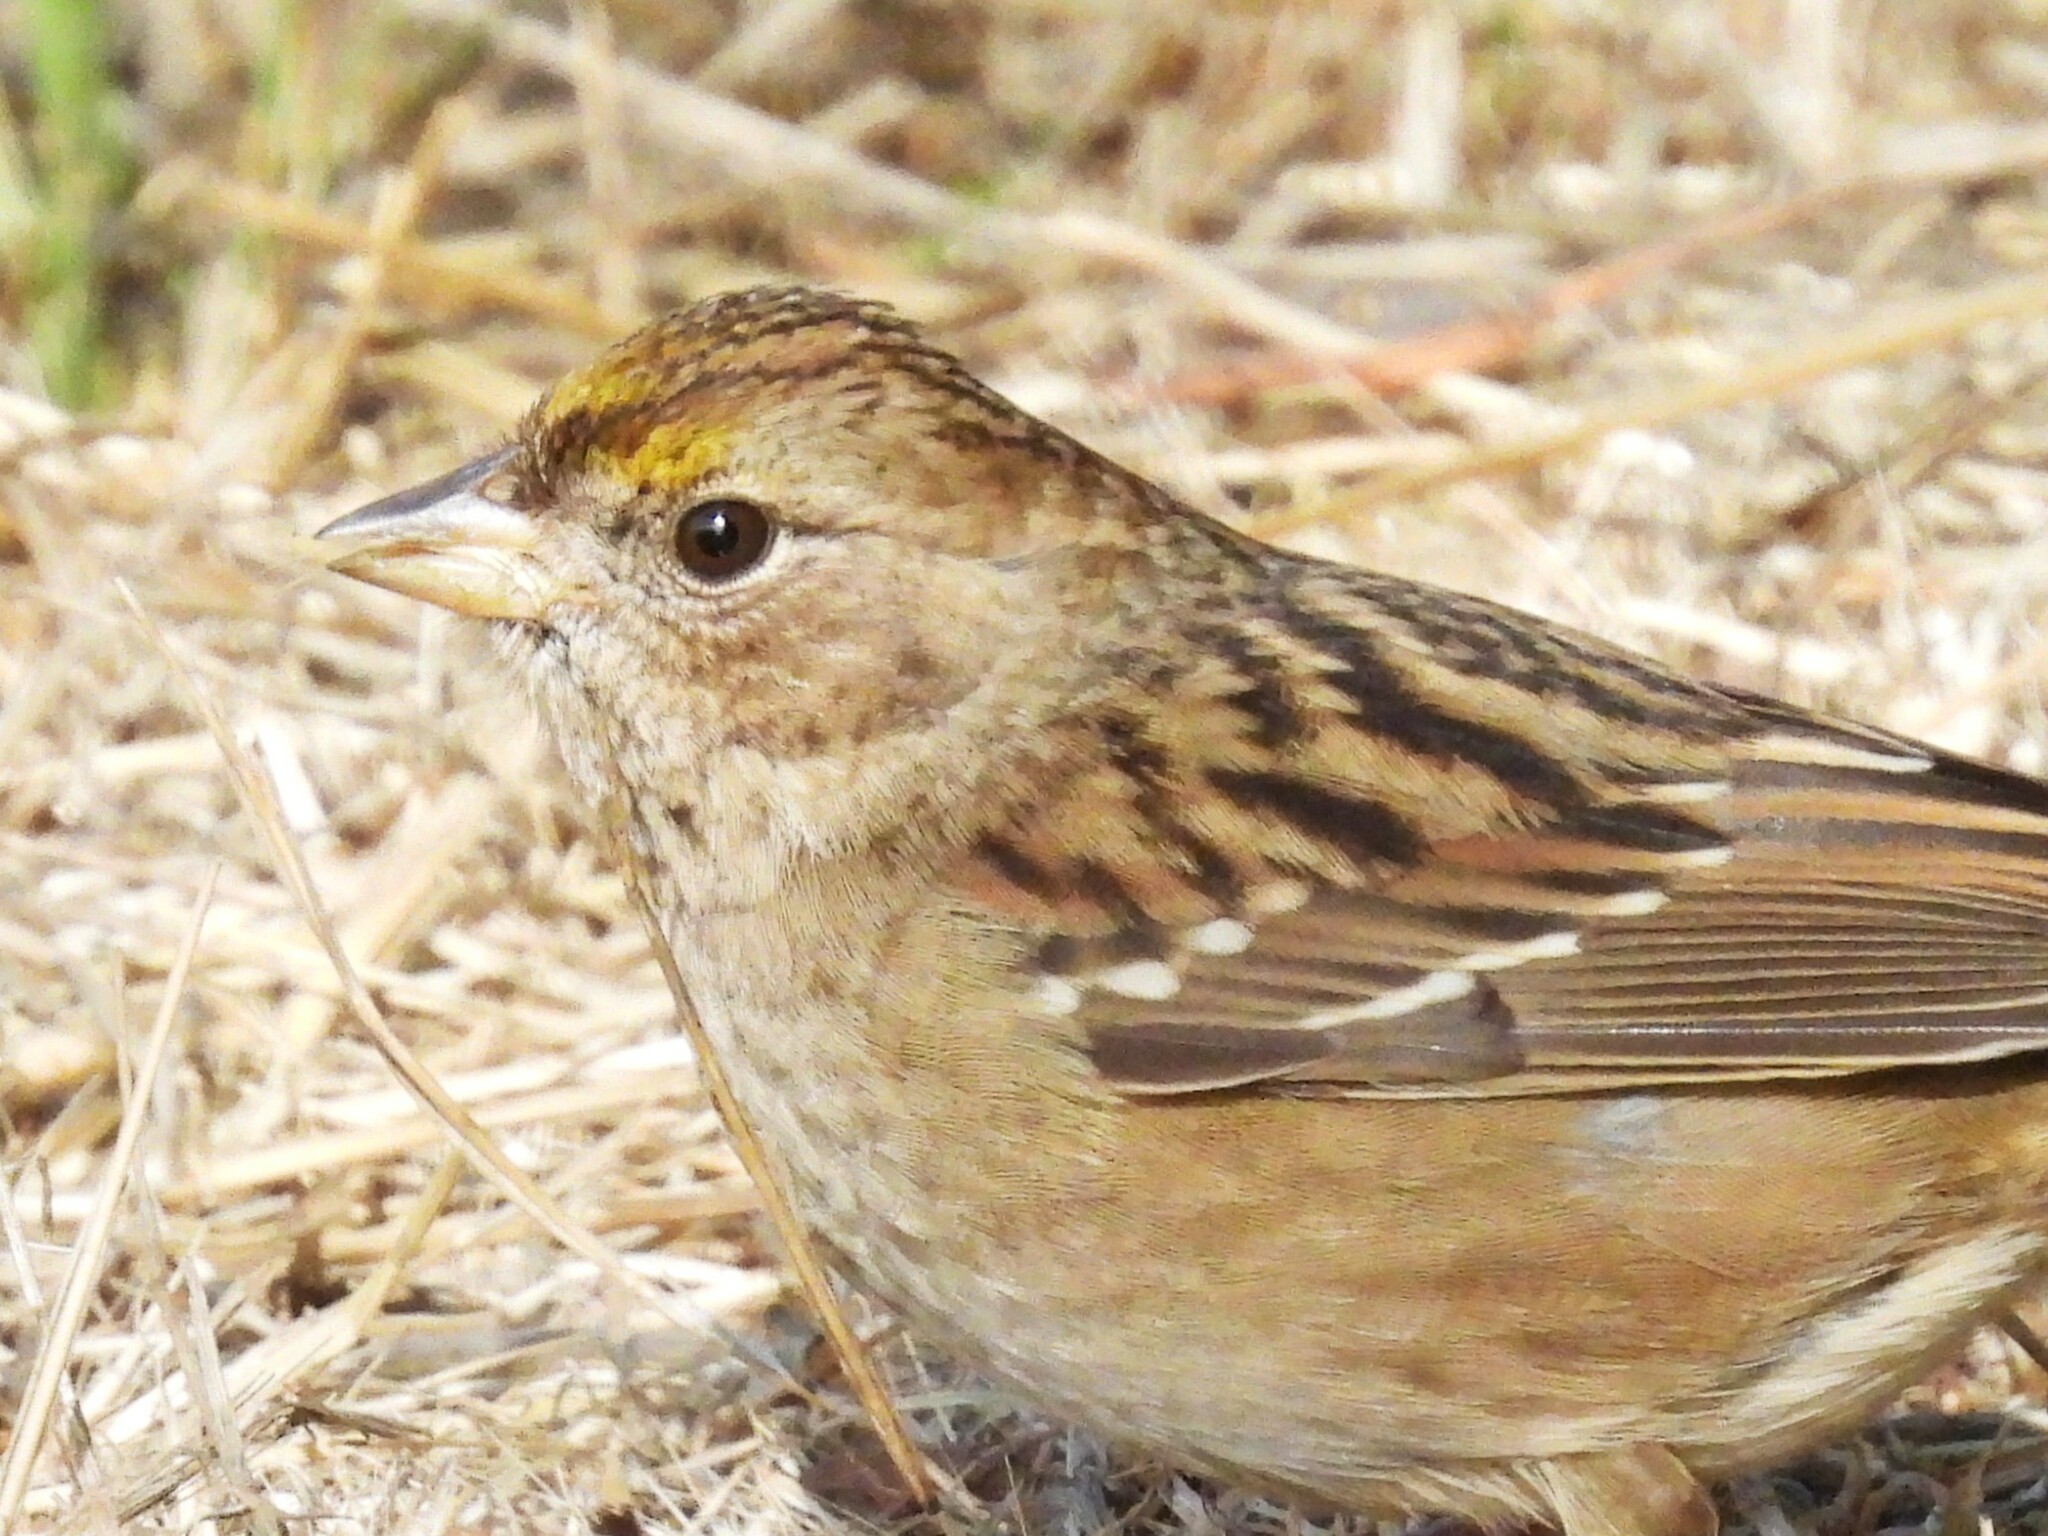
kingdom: Animalia
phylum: Chordata
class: Aves
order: Passeriformes
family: Passerellidae
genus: Zonotrichia
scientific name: Zonotrichia atricapilla
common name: Golden-crowned sparrow
